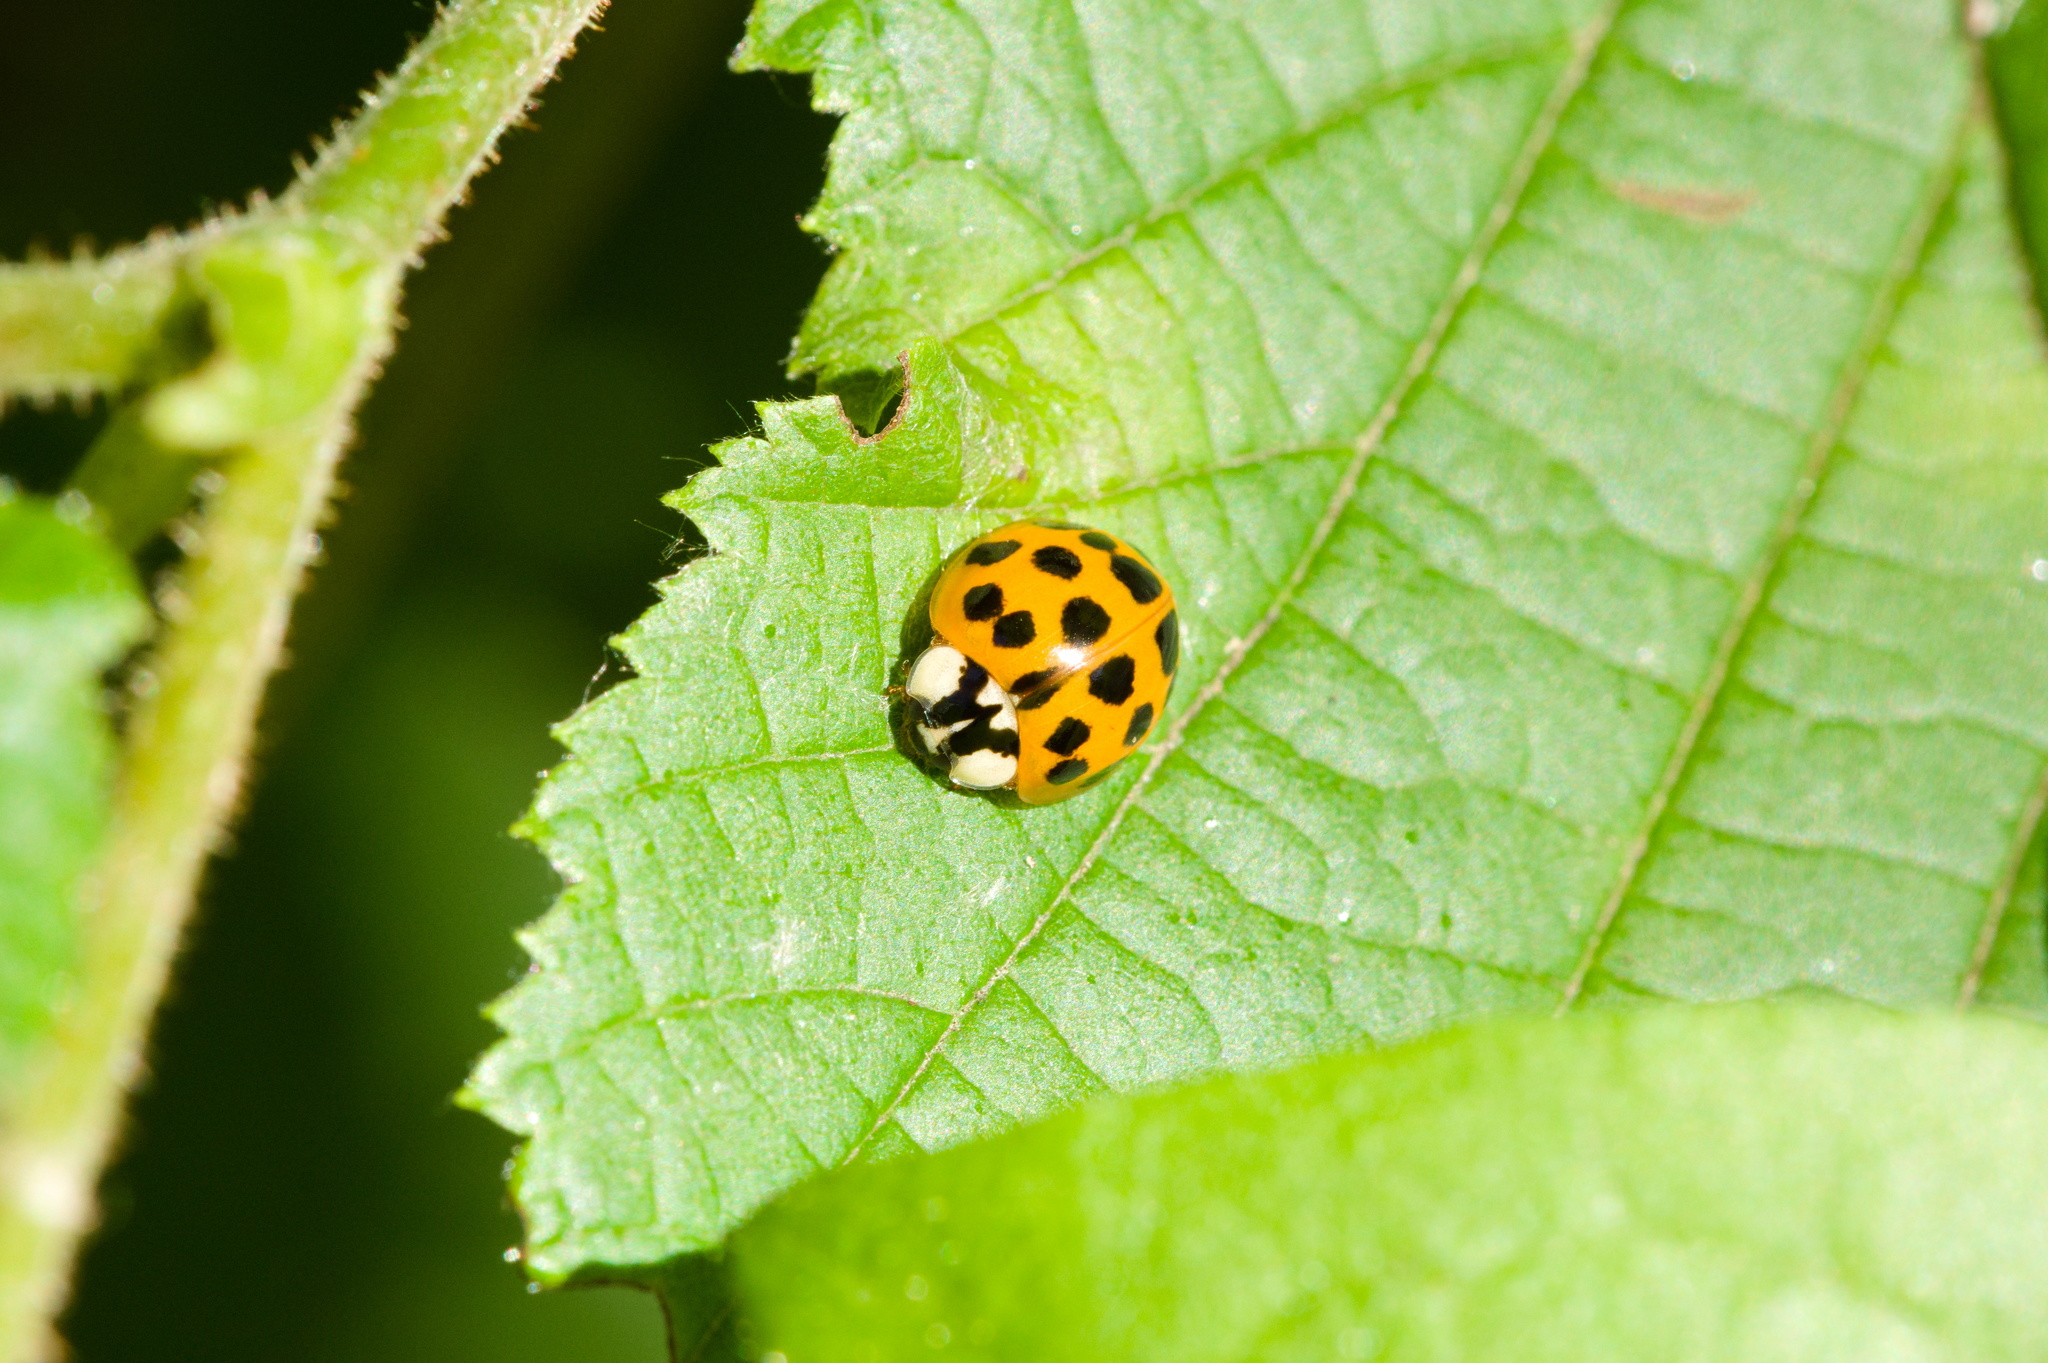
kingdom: Animalia
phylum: Arthropoda
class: Insecta
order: Coleoptera
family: Coccinellidae
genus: Harmonia
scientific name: Harmonia axyridis
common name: Harlequin ladybird
